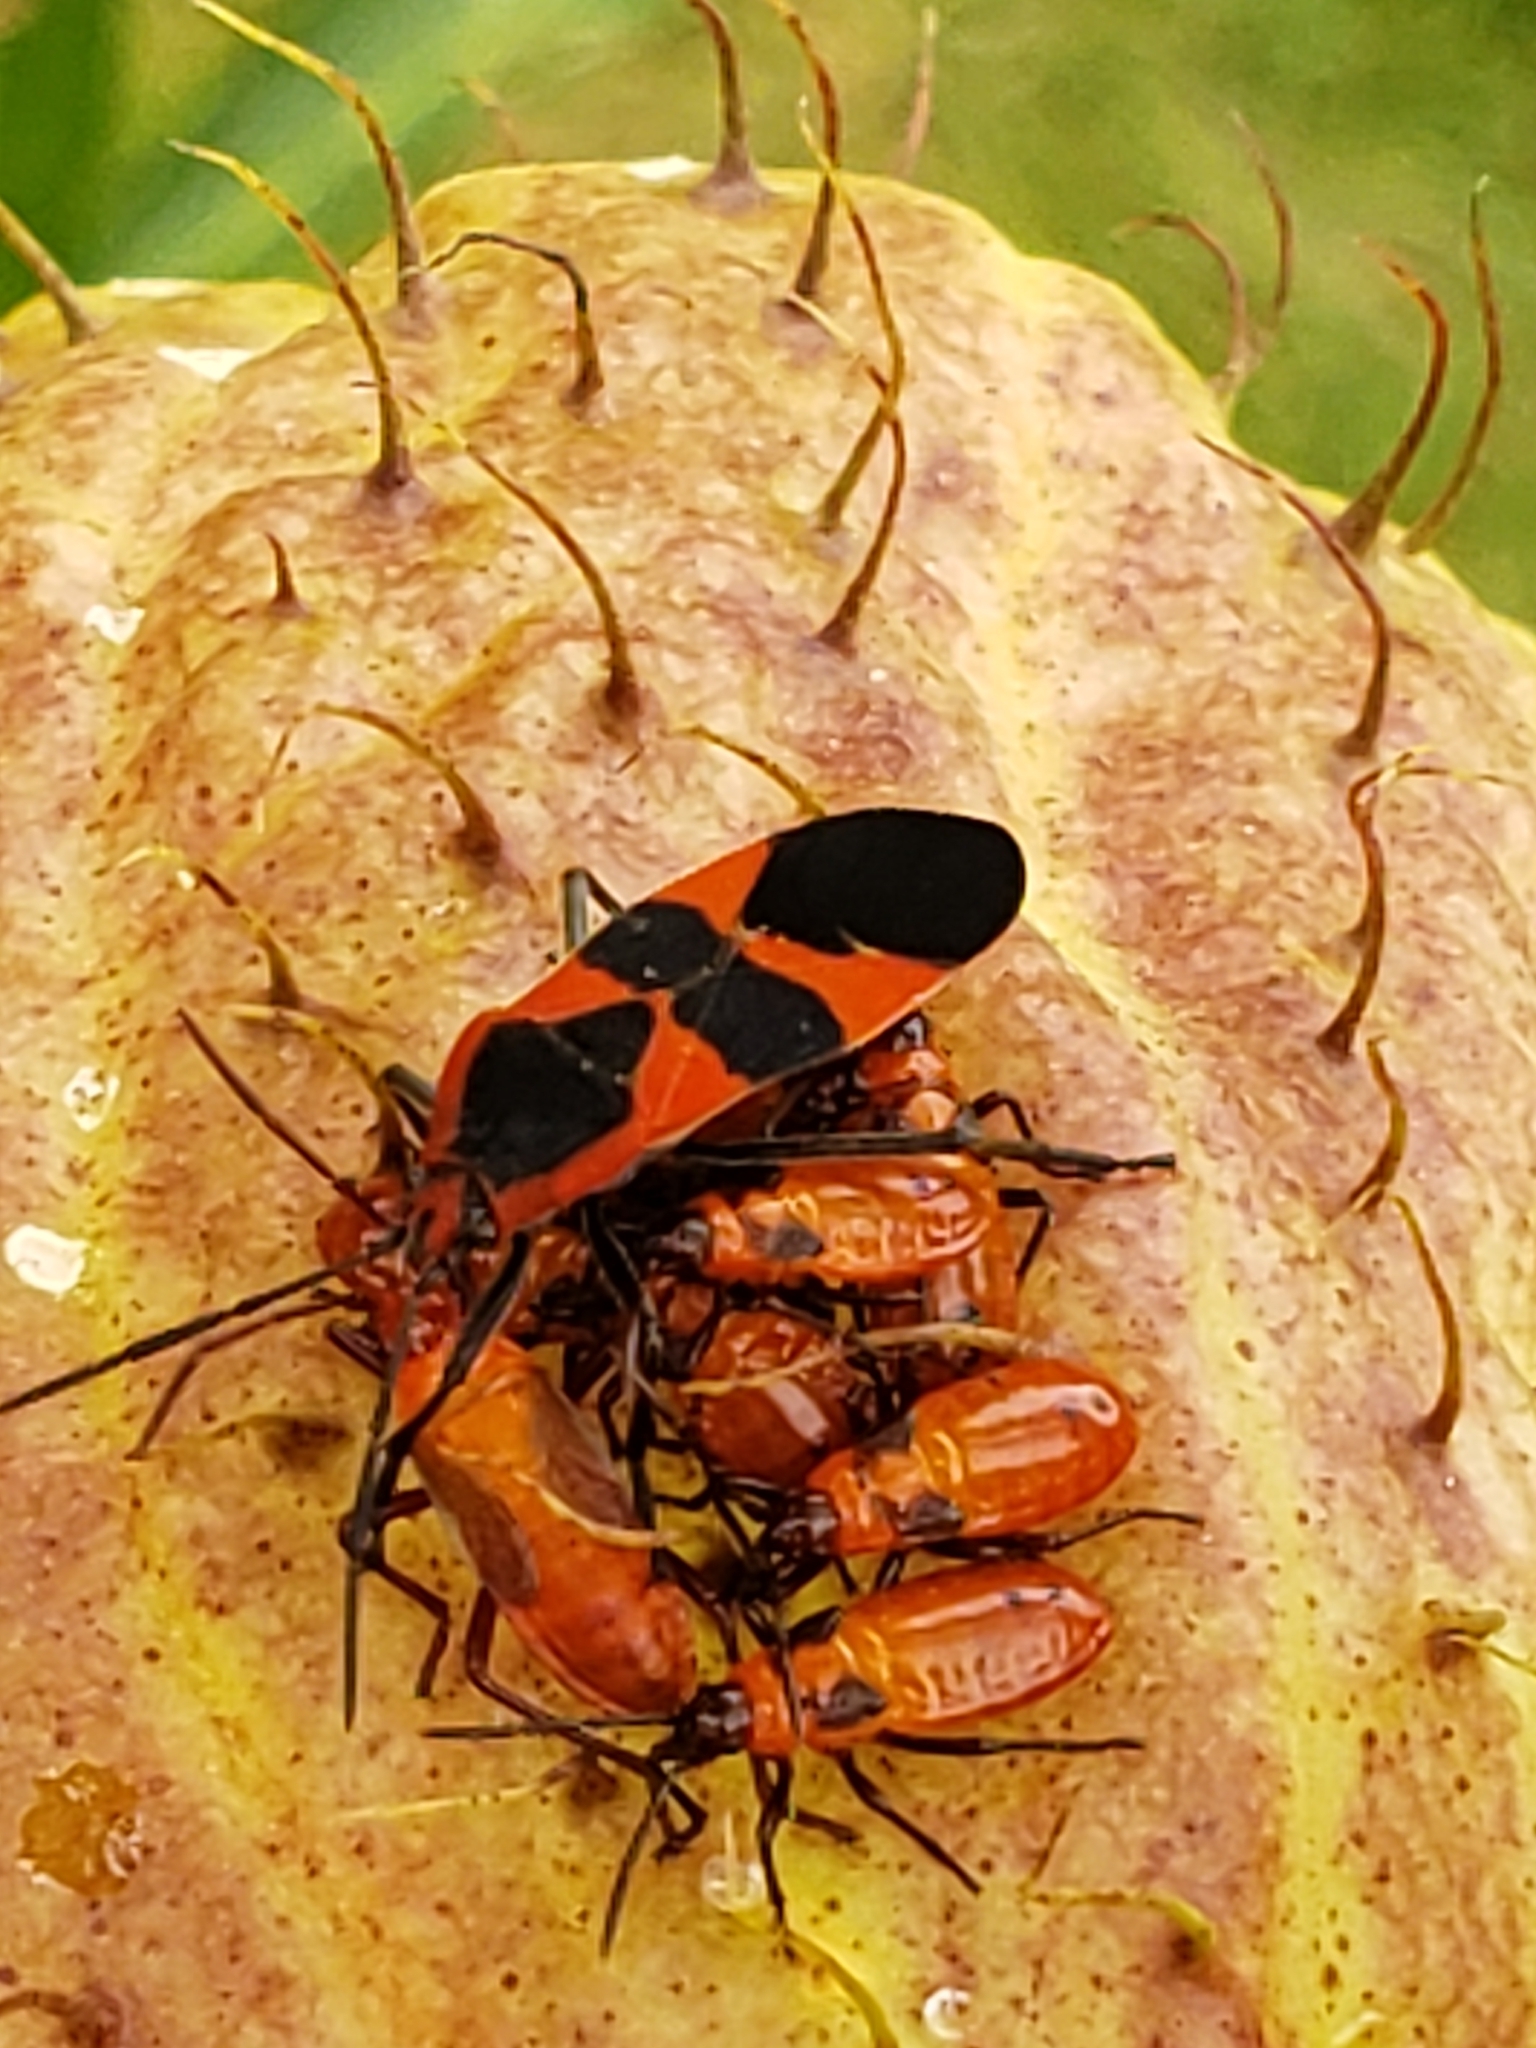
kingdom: Animalia
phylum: Arthropoda
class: Insecta
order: Hemiptera
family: Lygaeidae
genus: Oncopeltus
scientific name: Oncopeltus fasciatus
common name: Large milkweed bug
